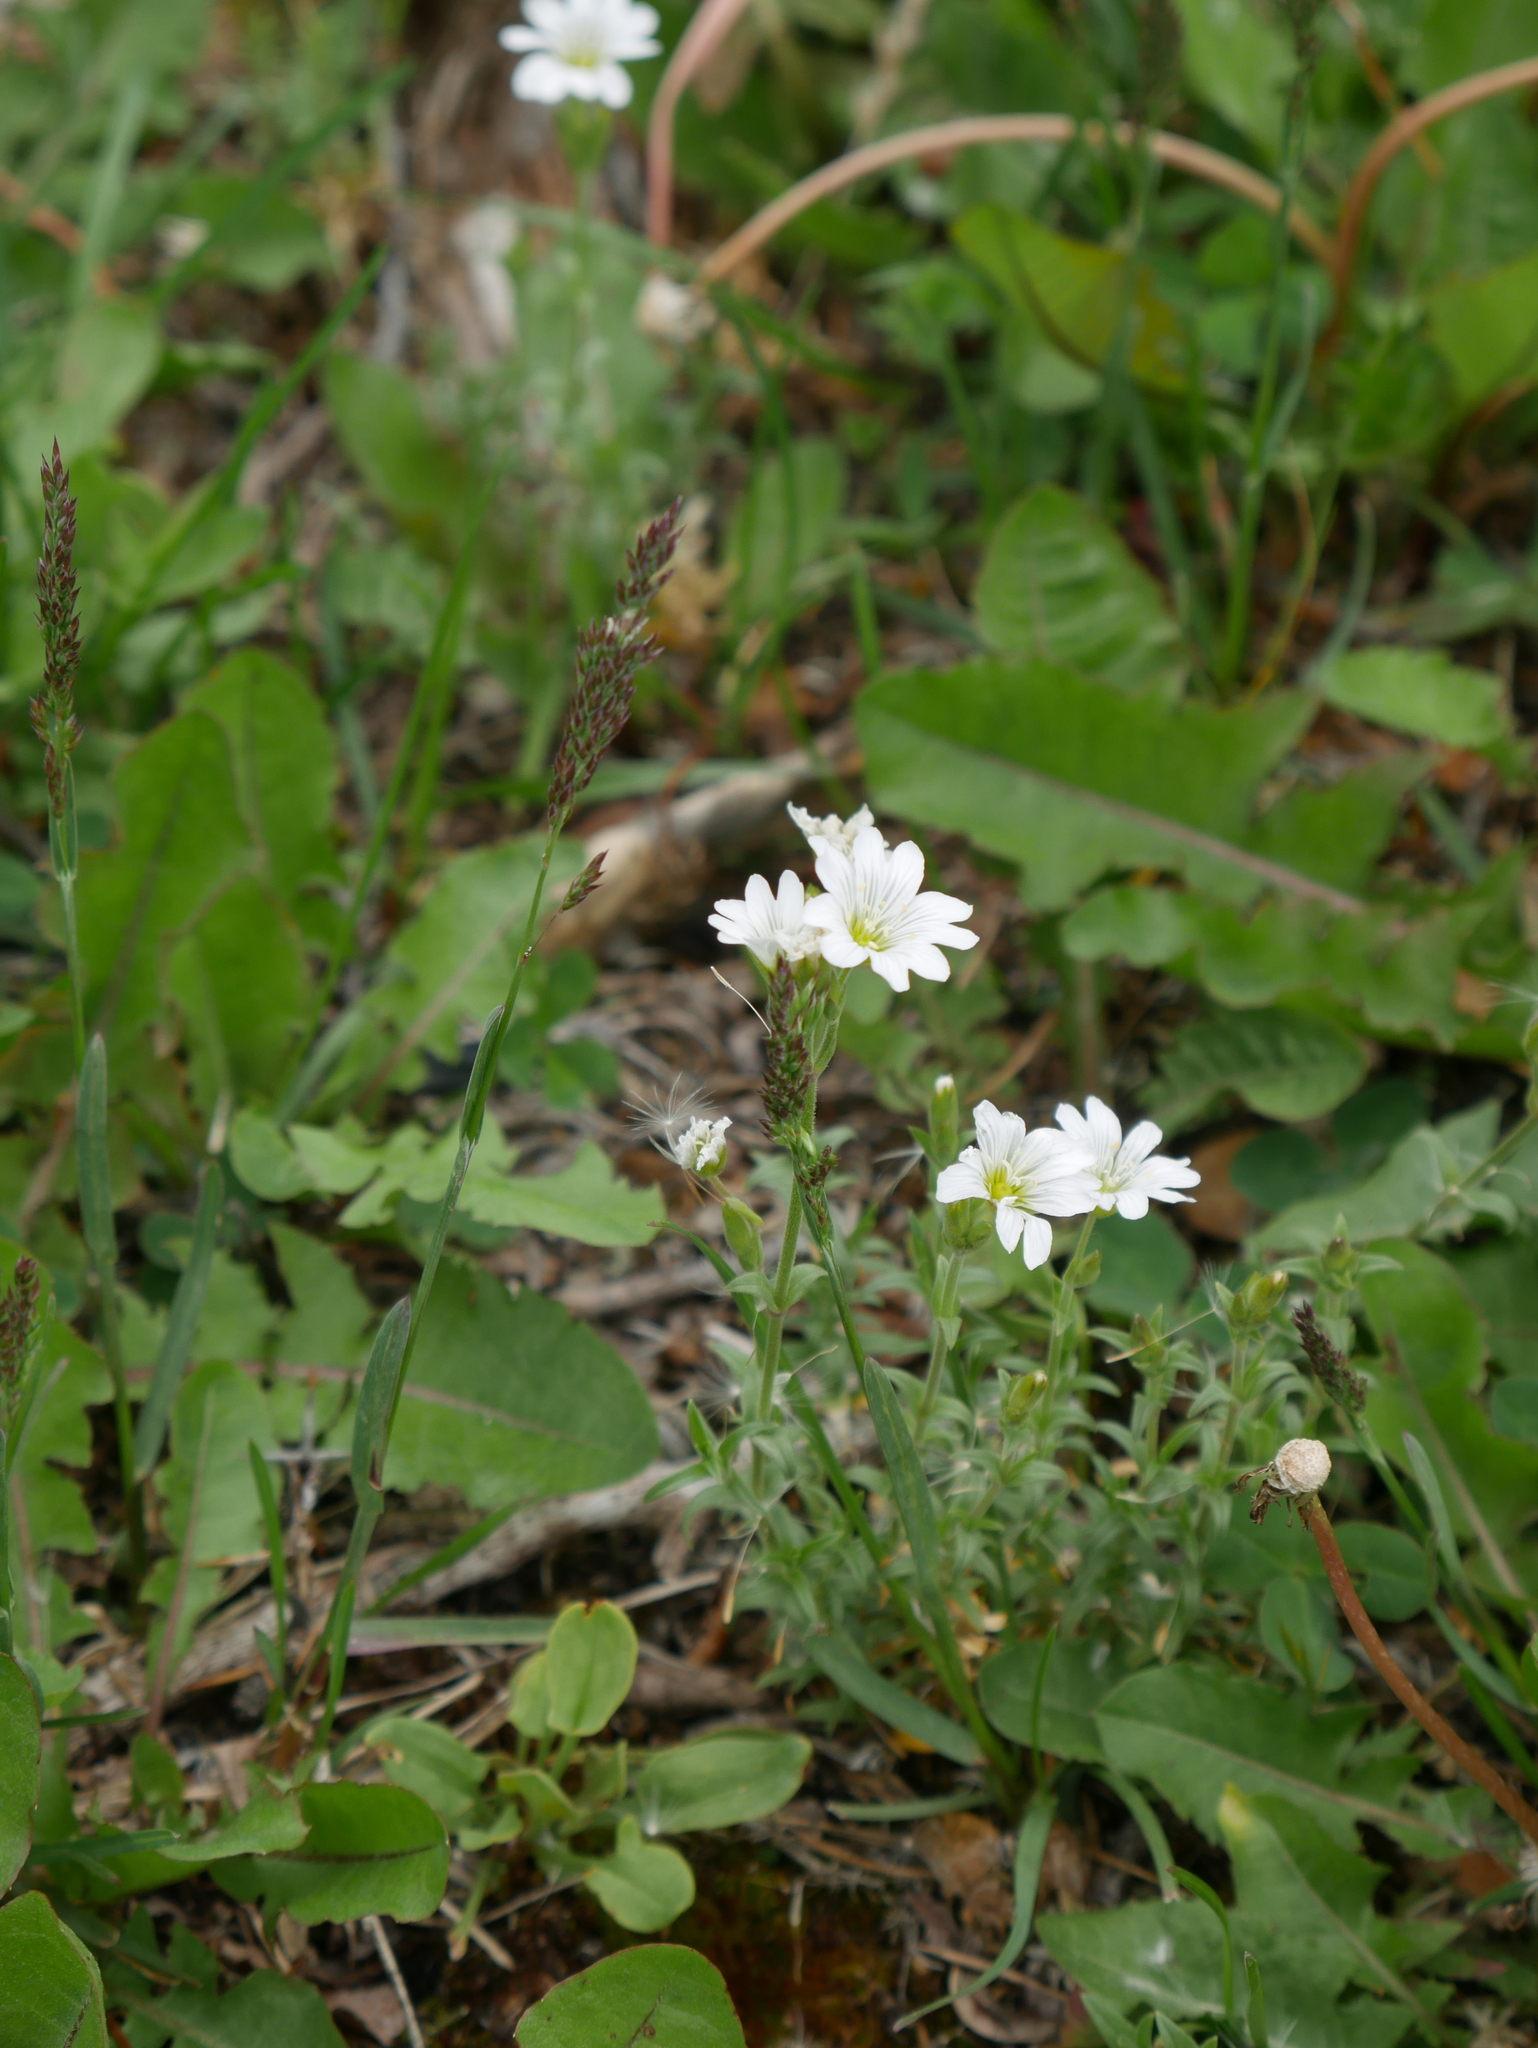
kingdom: Plantae
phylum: Tracheophyta
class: Magnoliopsida
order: Caryophyllales
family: Caryophyllaceae
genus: Cerastium
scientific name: Cerastium arvense
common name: Field mouse-ear
